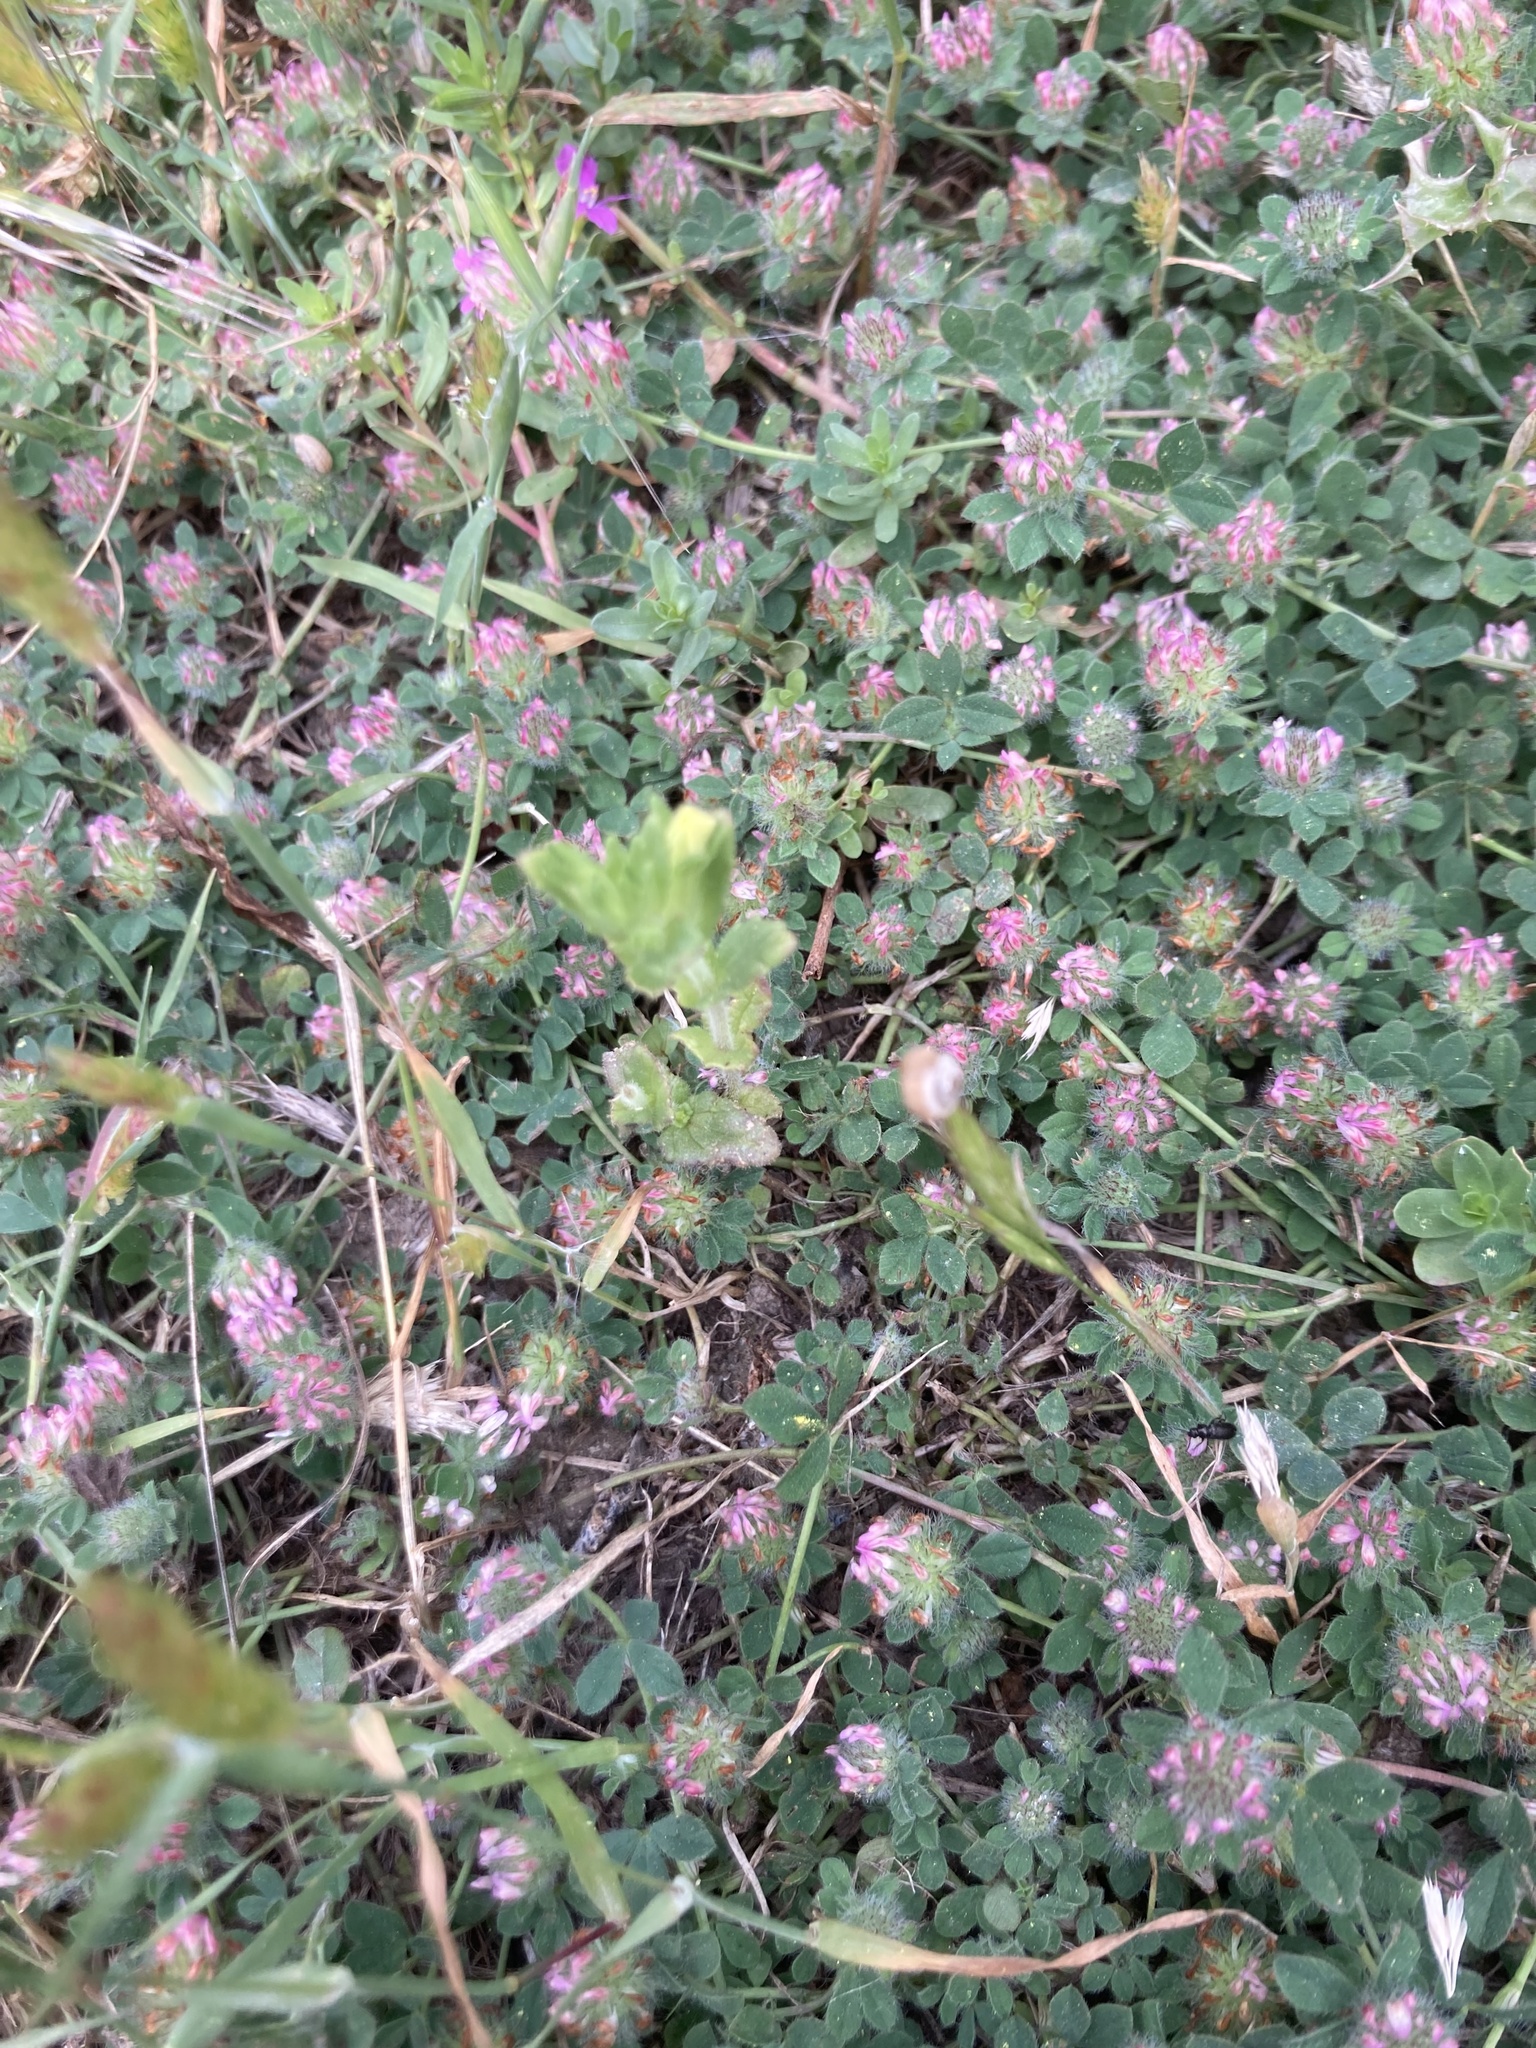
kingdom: Plantae
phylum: Tracheophyta
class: Magnoliopsida
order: Fabales
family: Fabaceae
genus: Trifolium
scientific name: Trifolium hirtum
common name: Rose clover
